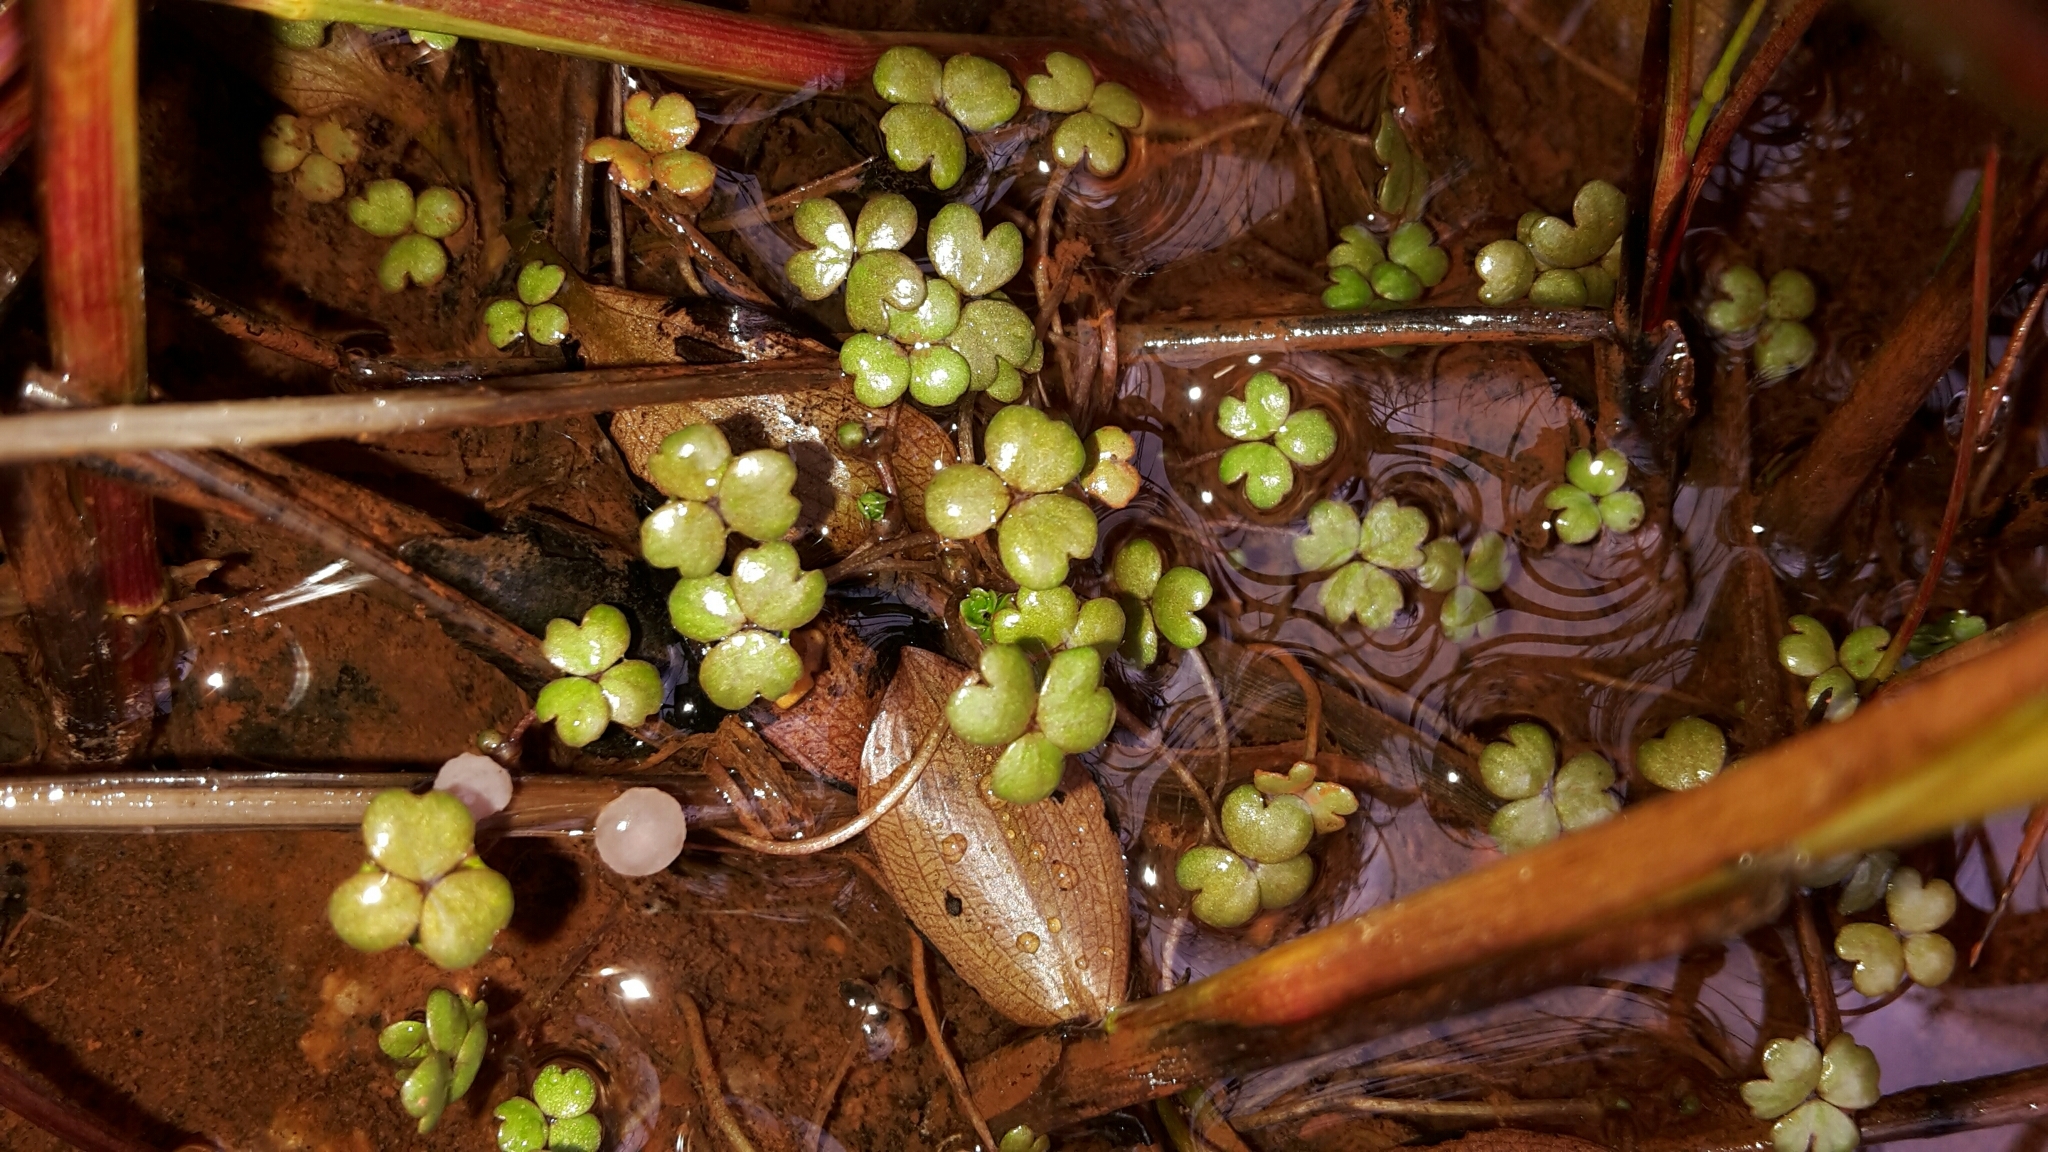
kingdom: Plantae
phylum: Tracheophyta
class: Magnoliopsida
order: Apiales
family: Araliaceae
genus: Hydrocotyle
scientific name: Hydrocotyle sulcata
